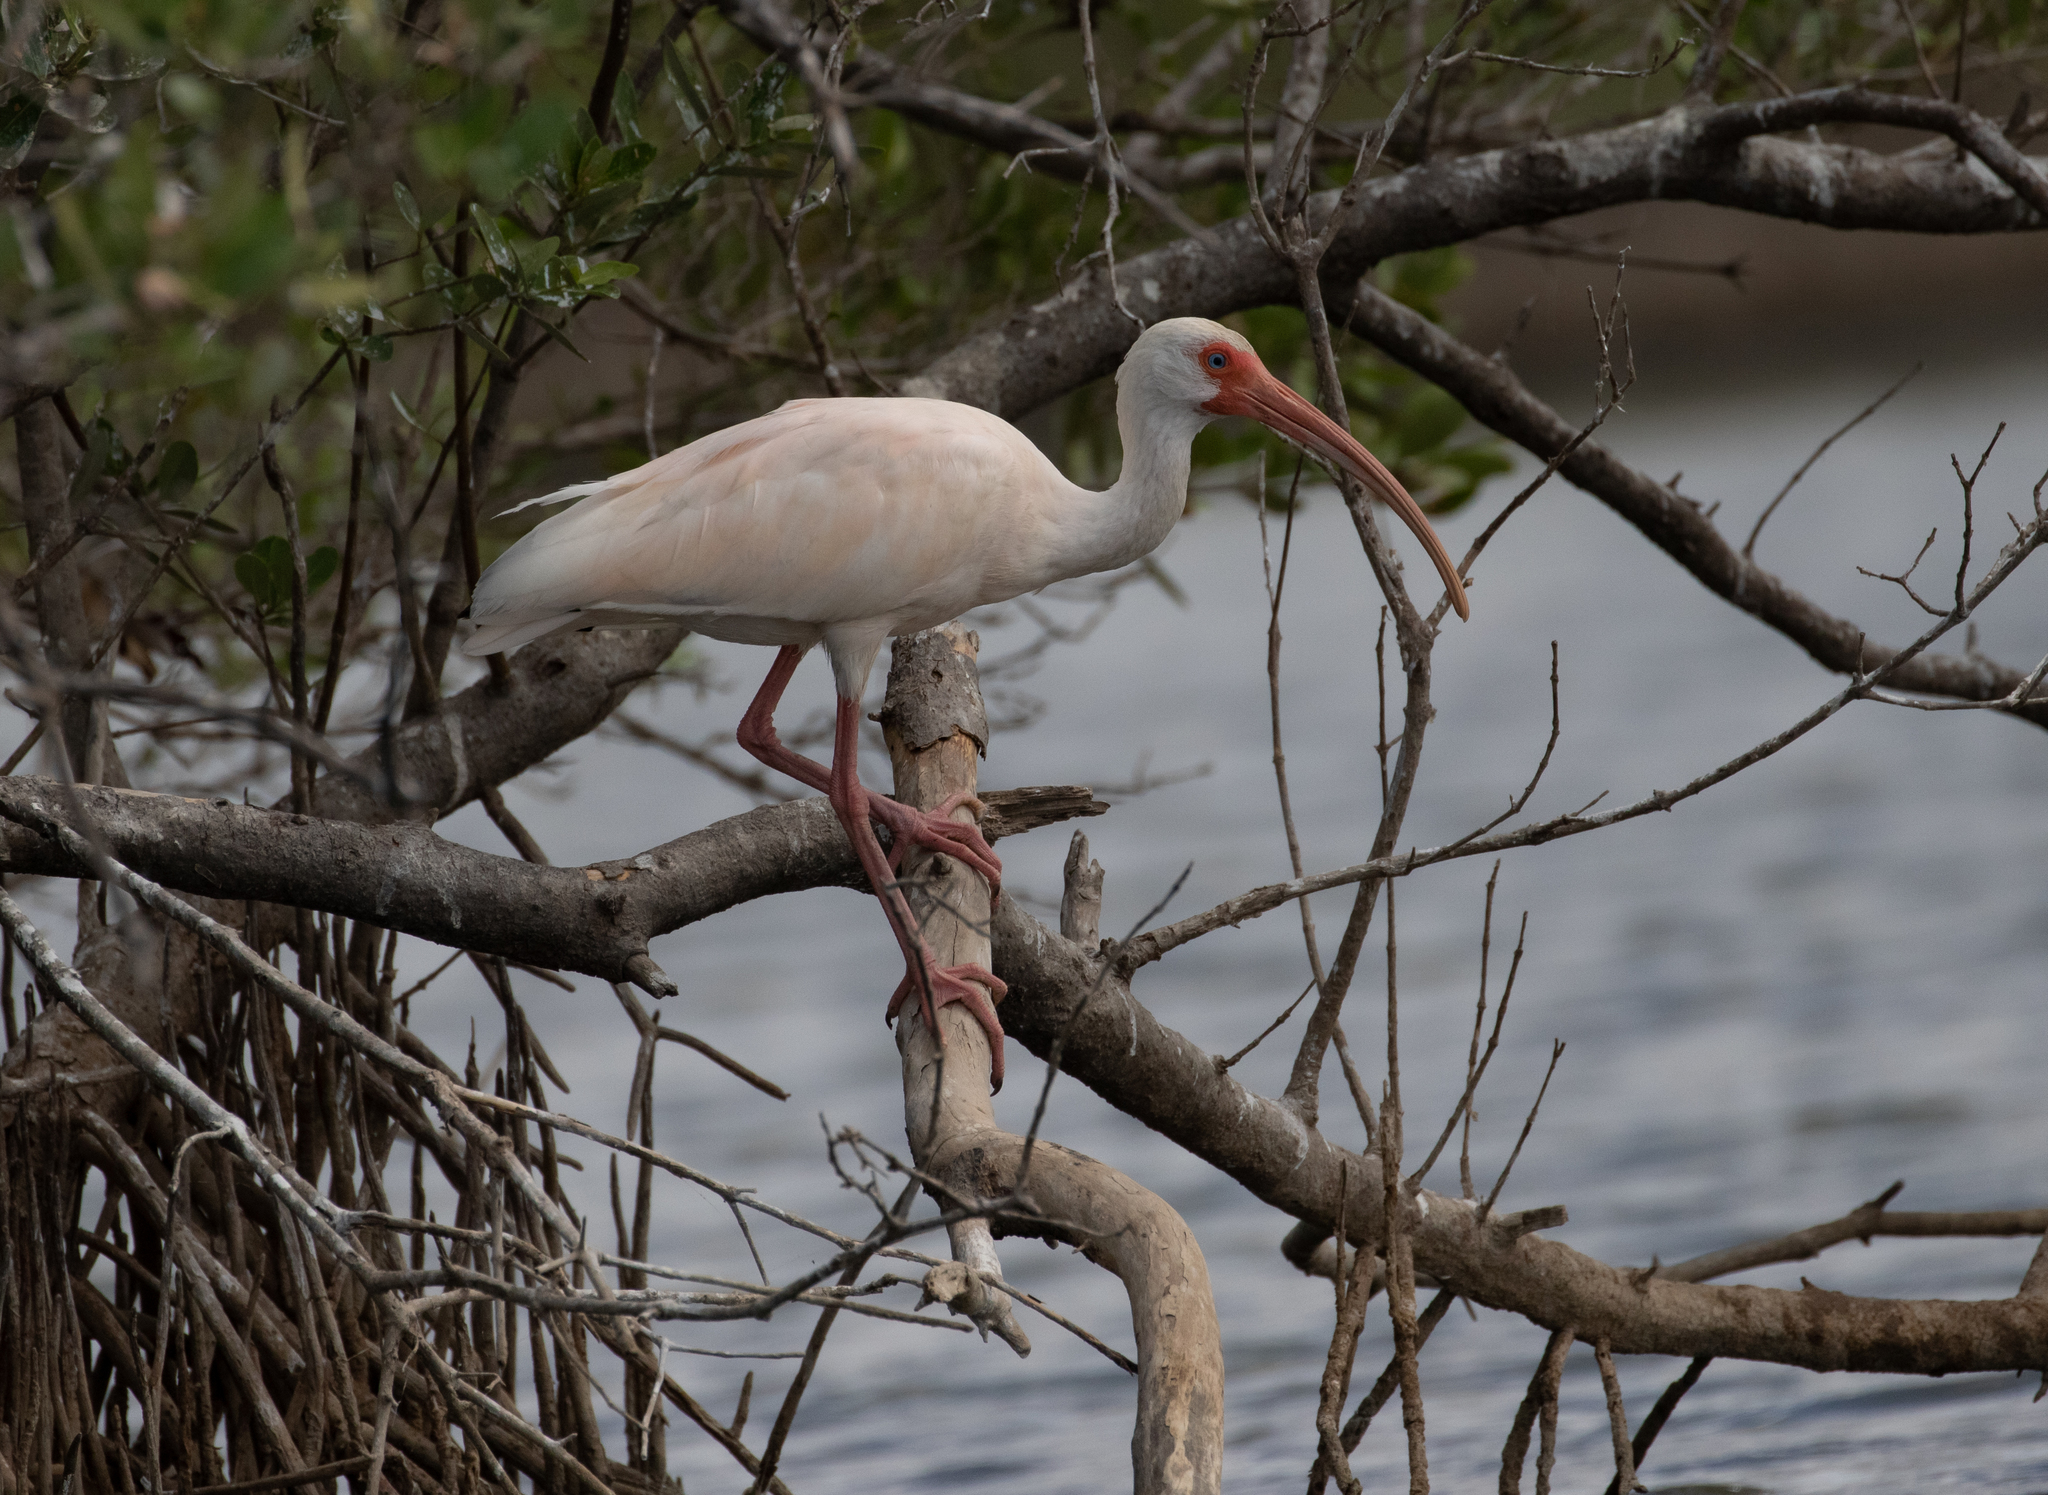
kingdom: Animalia
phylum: Chordata
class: Aves
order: Pelecaniformes
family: Threskiornithidae
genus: Eudocimus
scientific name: Eudocimus albus
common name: White ibis
